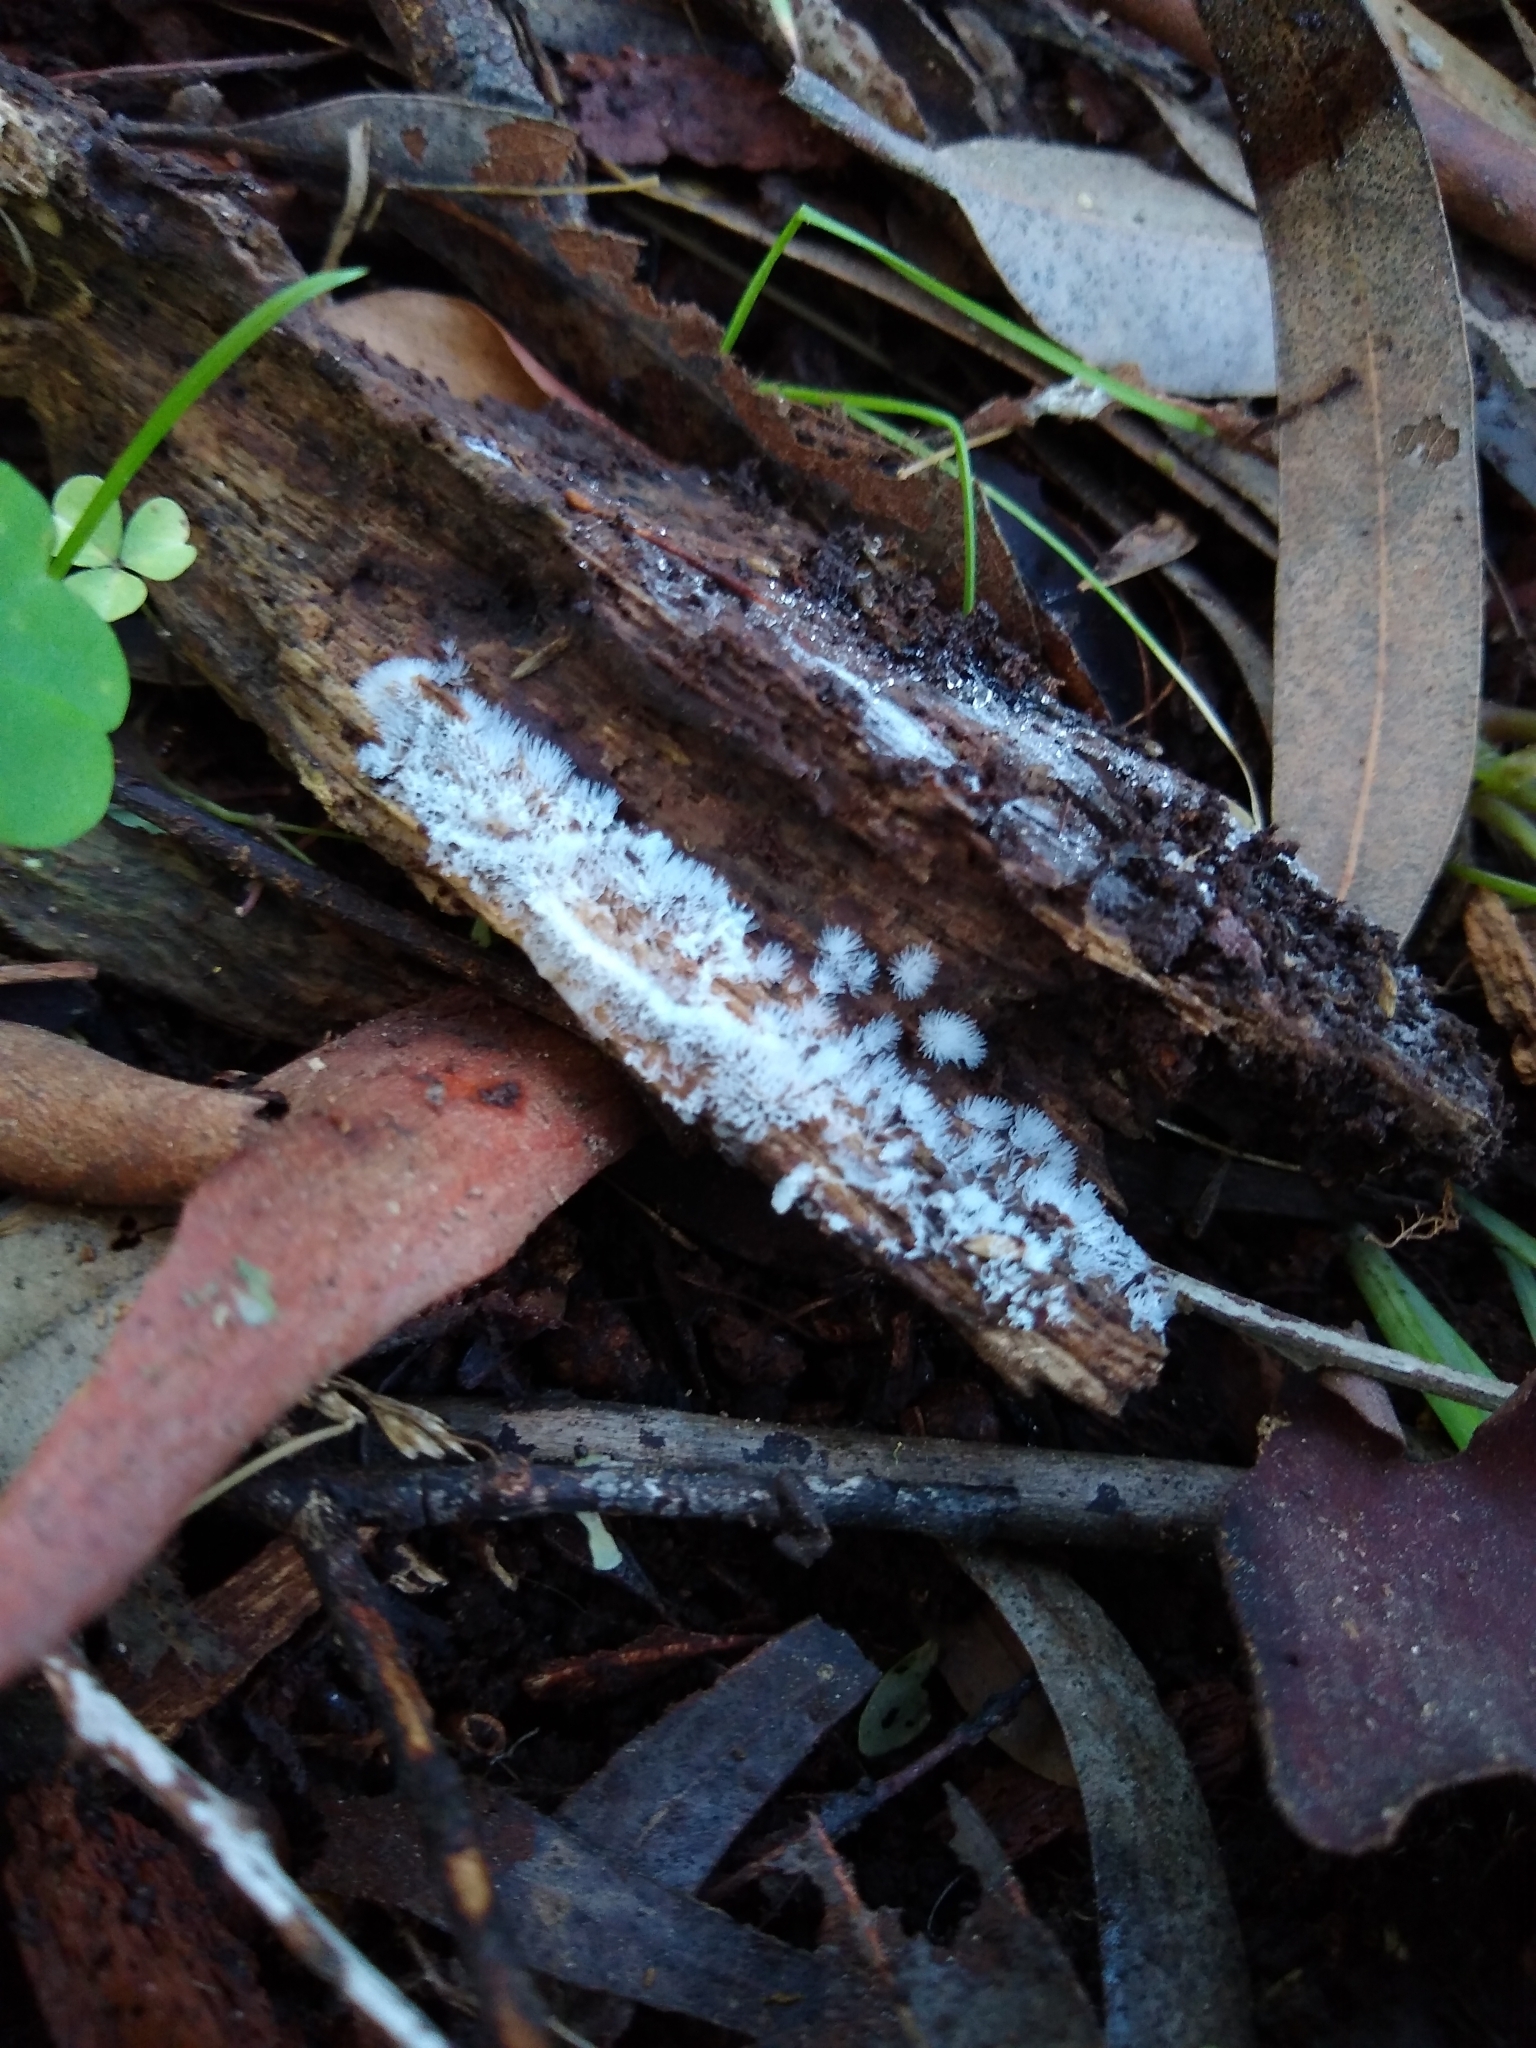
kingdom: Protozoa
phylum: Mycetozoa
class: Protosteliomycetes
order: Ceratiomyxales
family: Ceratiomyxaceae
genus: Ceratiomyxa
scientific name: Ceratiomyxa fruticulosa
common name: Honeycomb coral slime mold
